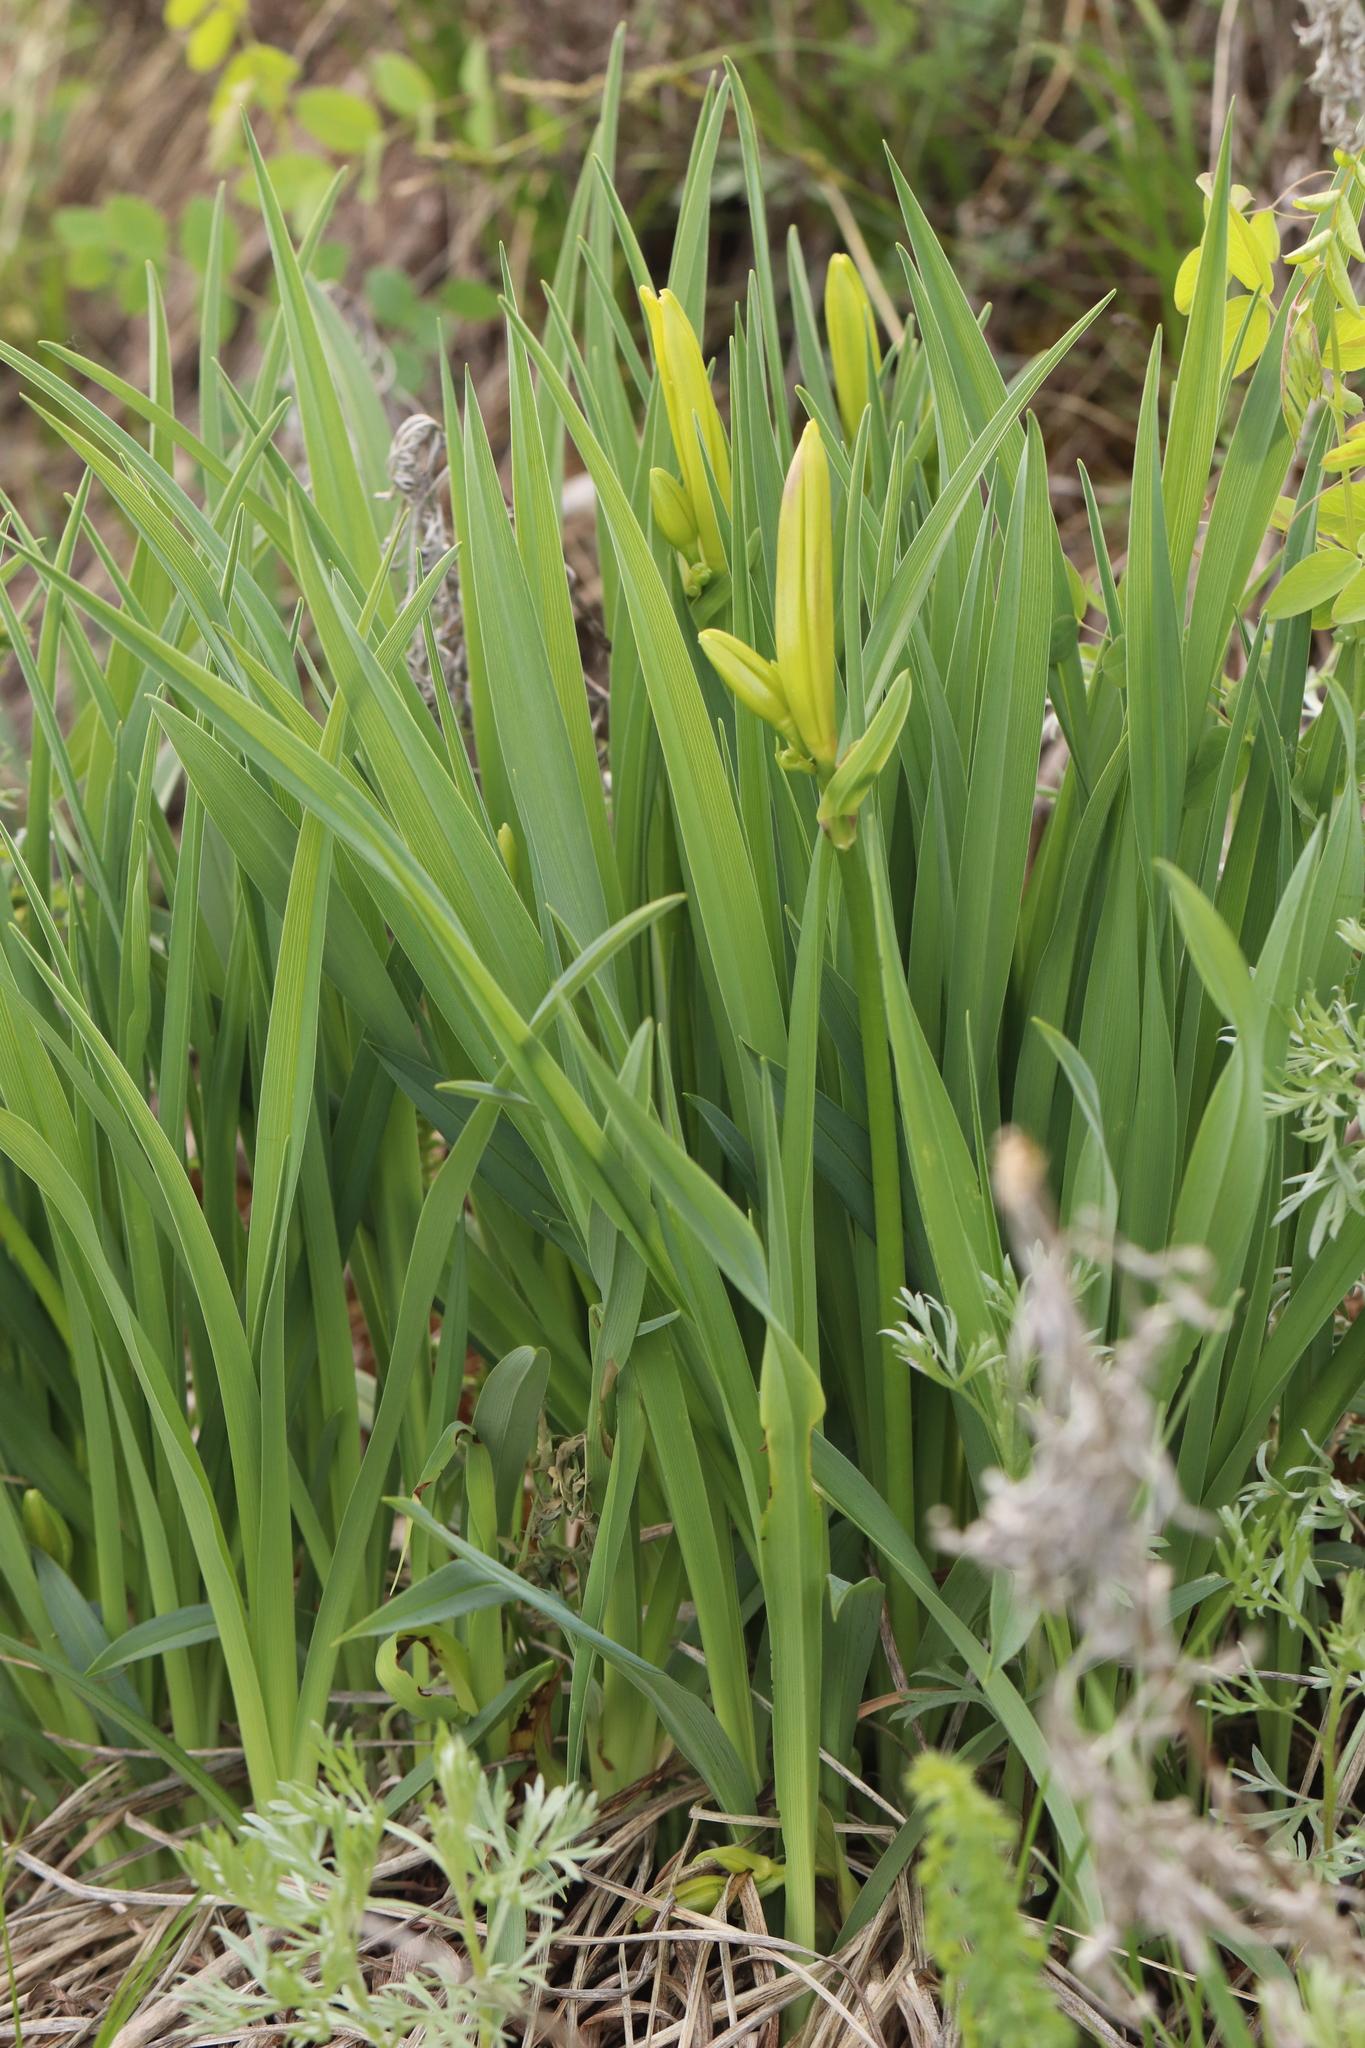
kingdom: Plantae
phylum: Tracheophyta
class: Liliopsida
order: Asparagales
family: Asphodelaceae
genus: Hemerocallis
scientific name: Hemerocallis minor
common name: Small daylily
